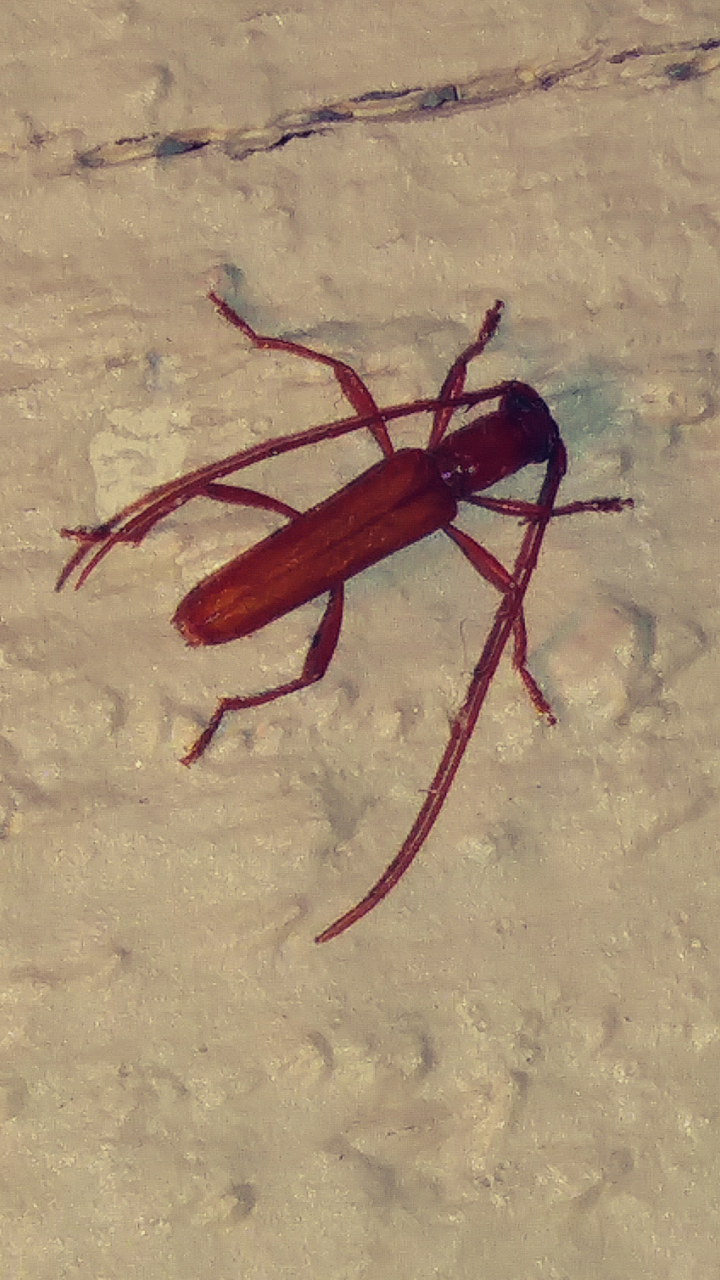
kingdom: Animalia
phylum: Arthropoda
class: Insecta
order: Coleoptera
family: Cerambycidae
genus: Psyrassa
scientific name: Psyrassa pertenuis
